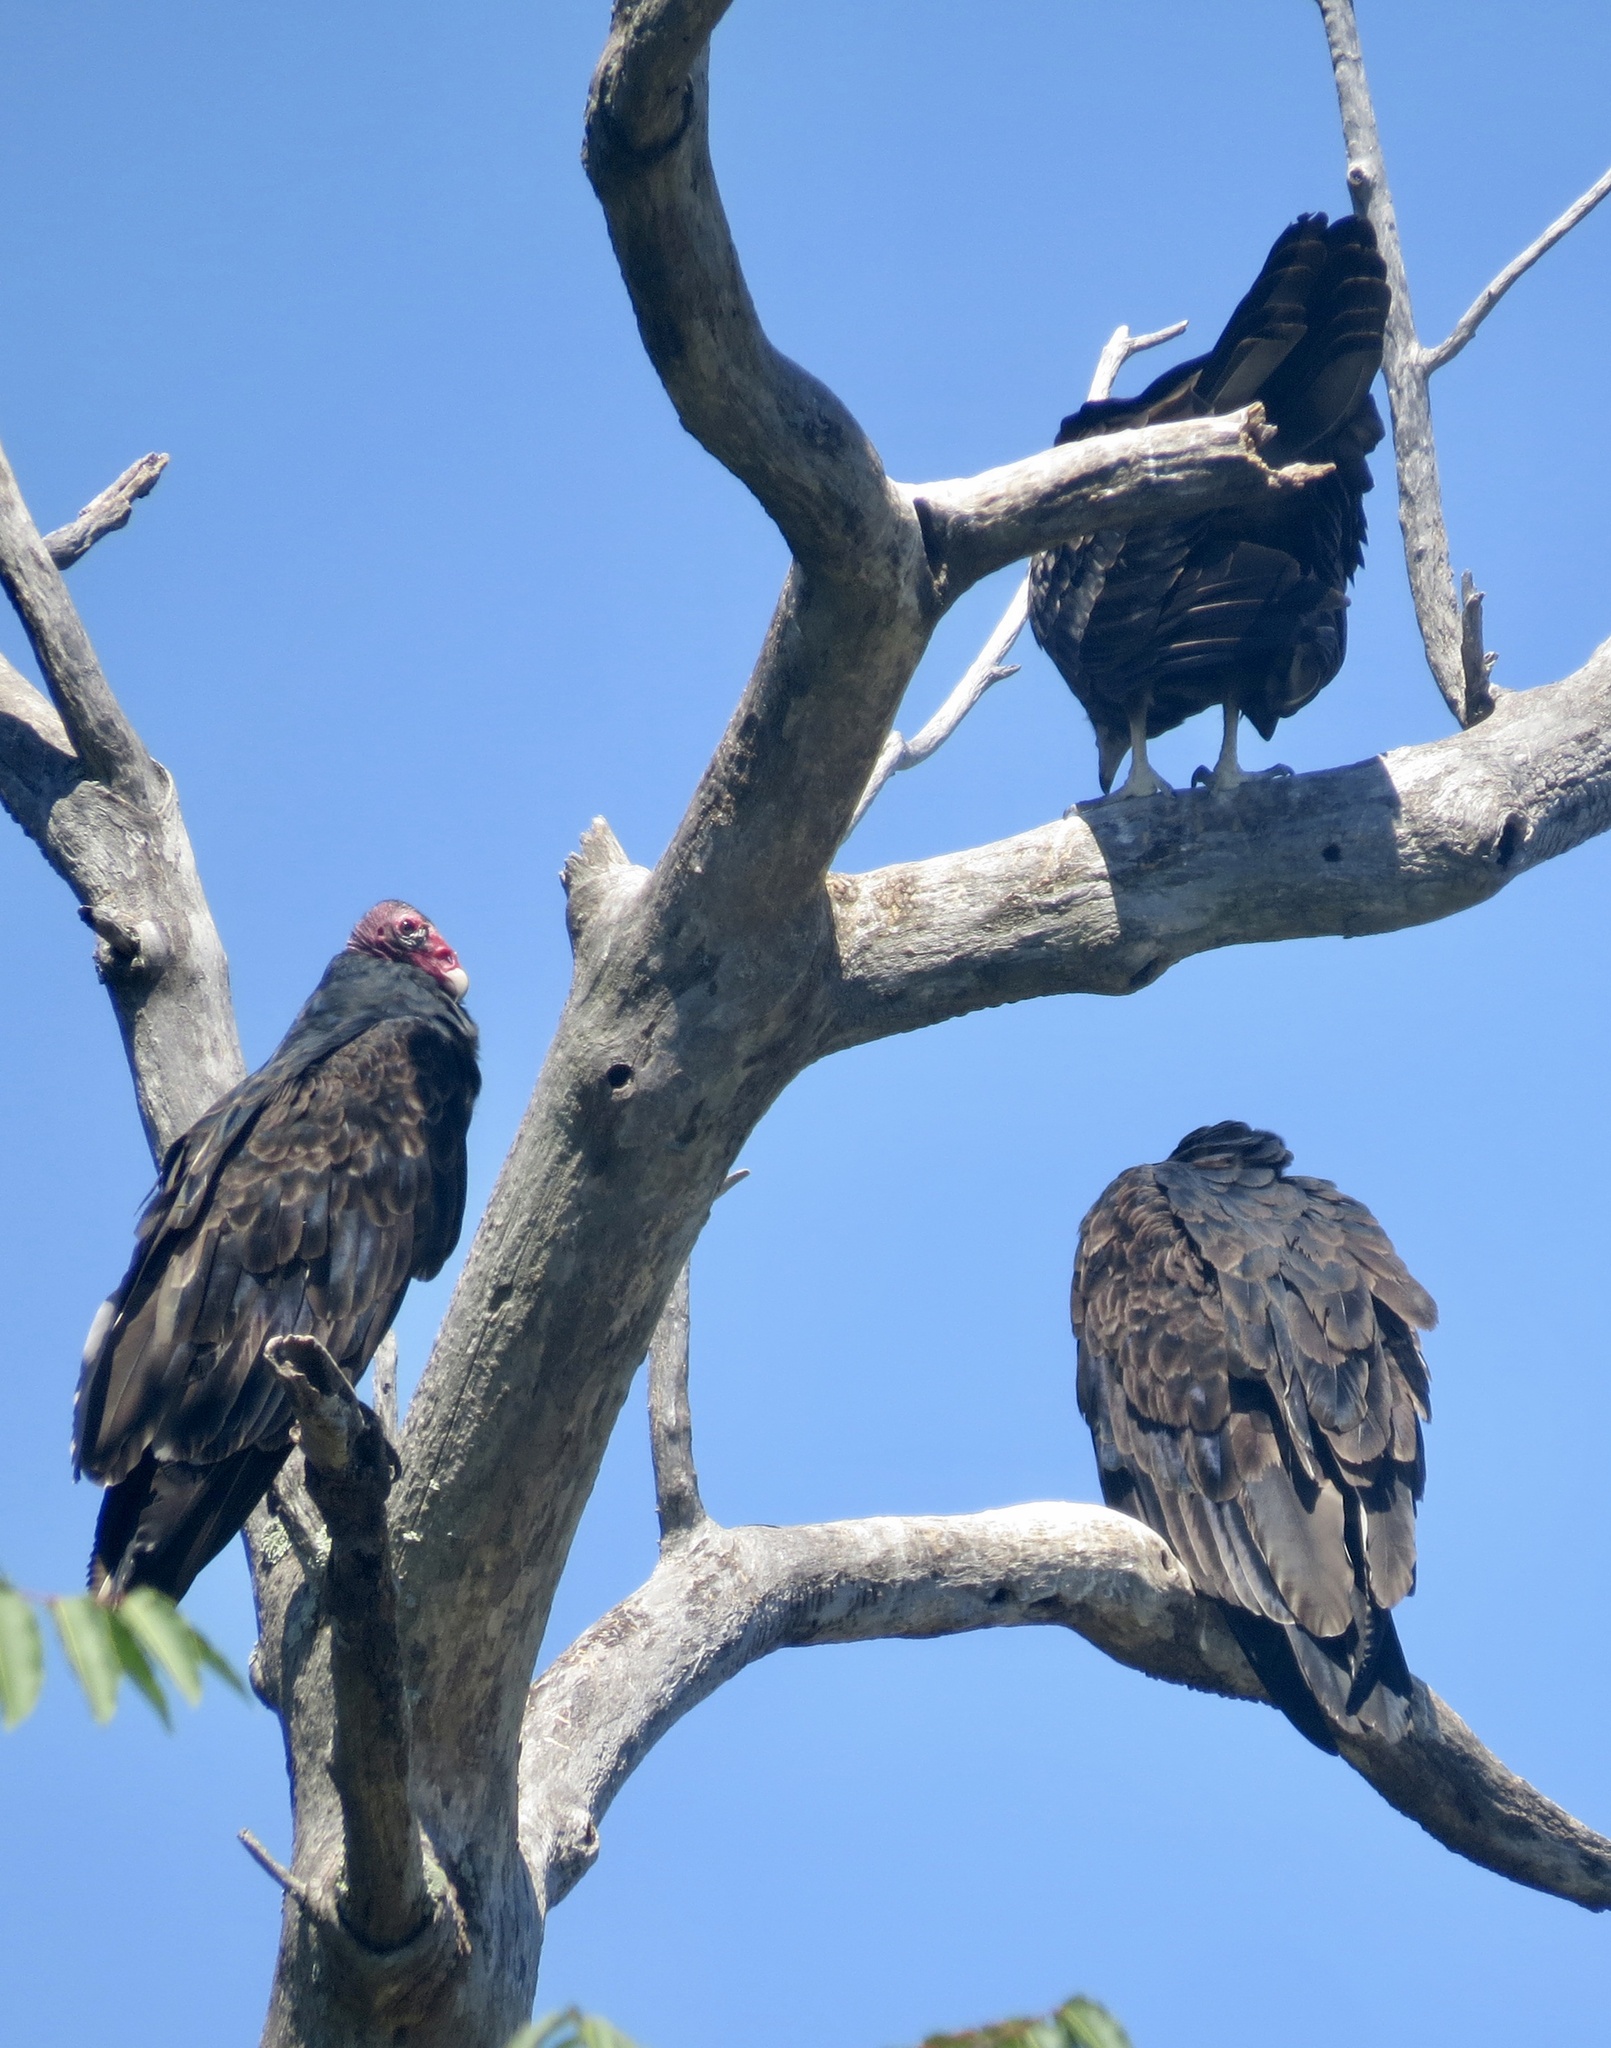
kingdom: Animalia
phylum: Chordata
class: Aves
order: Accipitriformes
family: Cathartidae
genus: Cathartes
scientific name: Cathartes aura
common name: Turkey vulture
